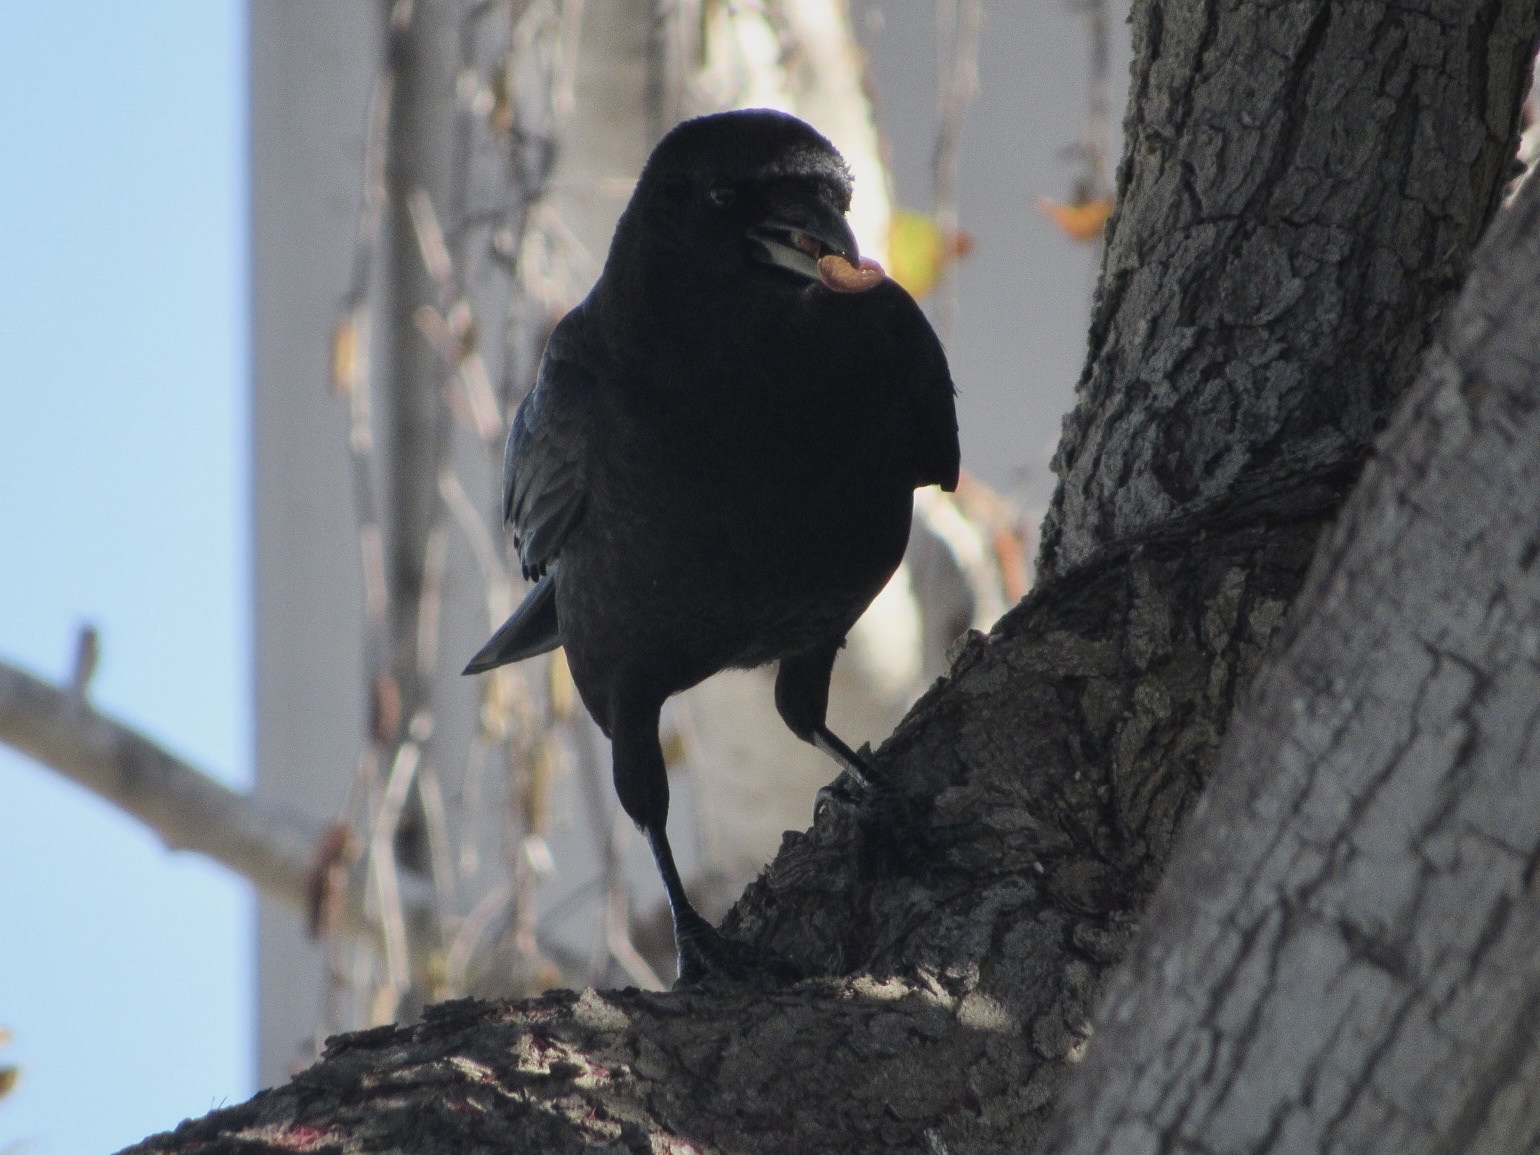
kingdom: Animalia
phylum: Chordata
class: Aves
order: Passeriformes
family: Corvidae
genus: Corvus
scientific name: Corvus brachyrhynchos
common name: American crow
